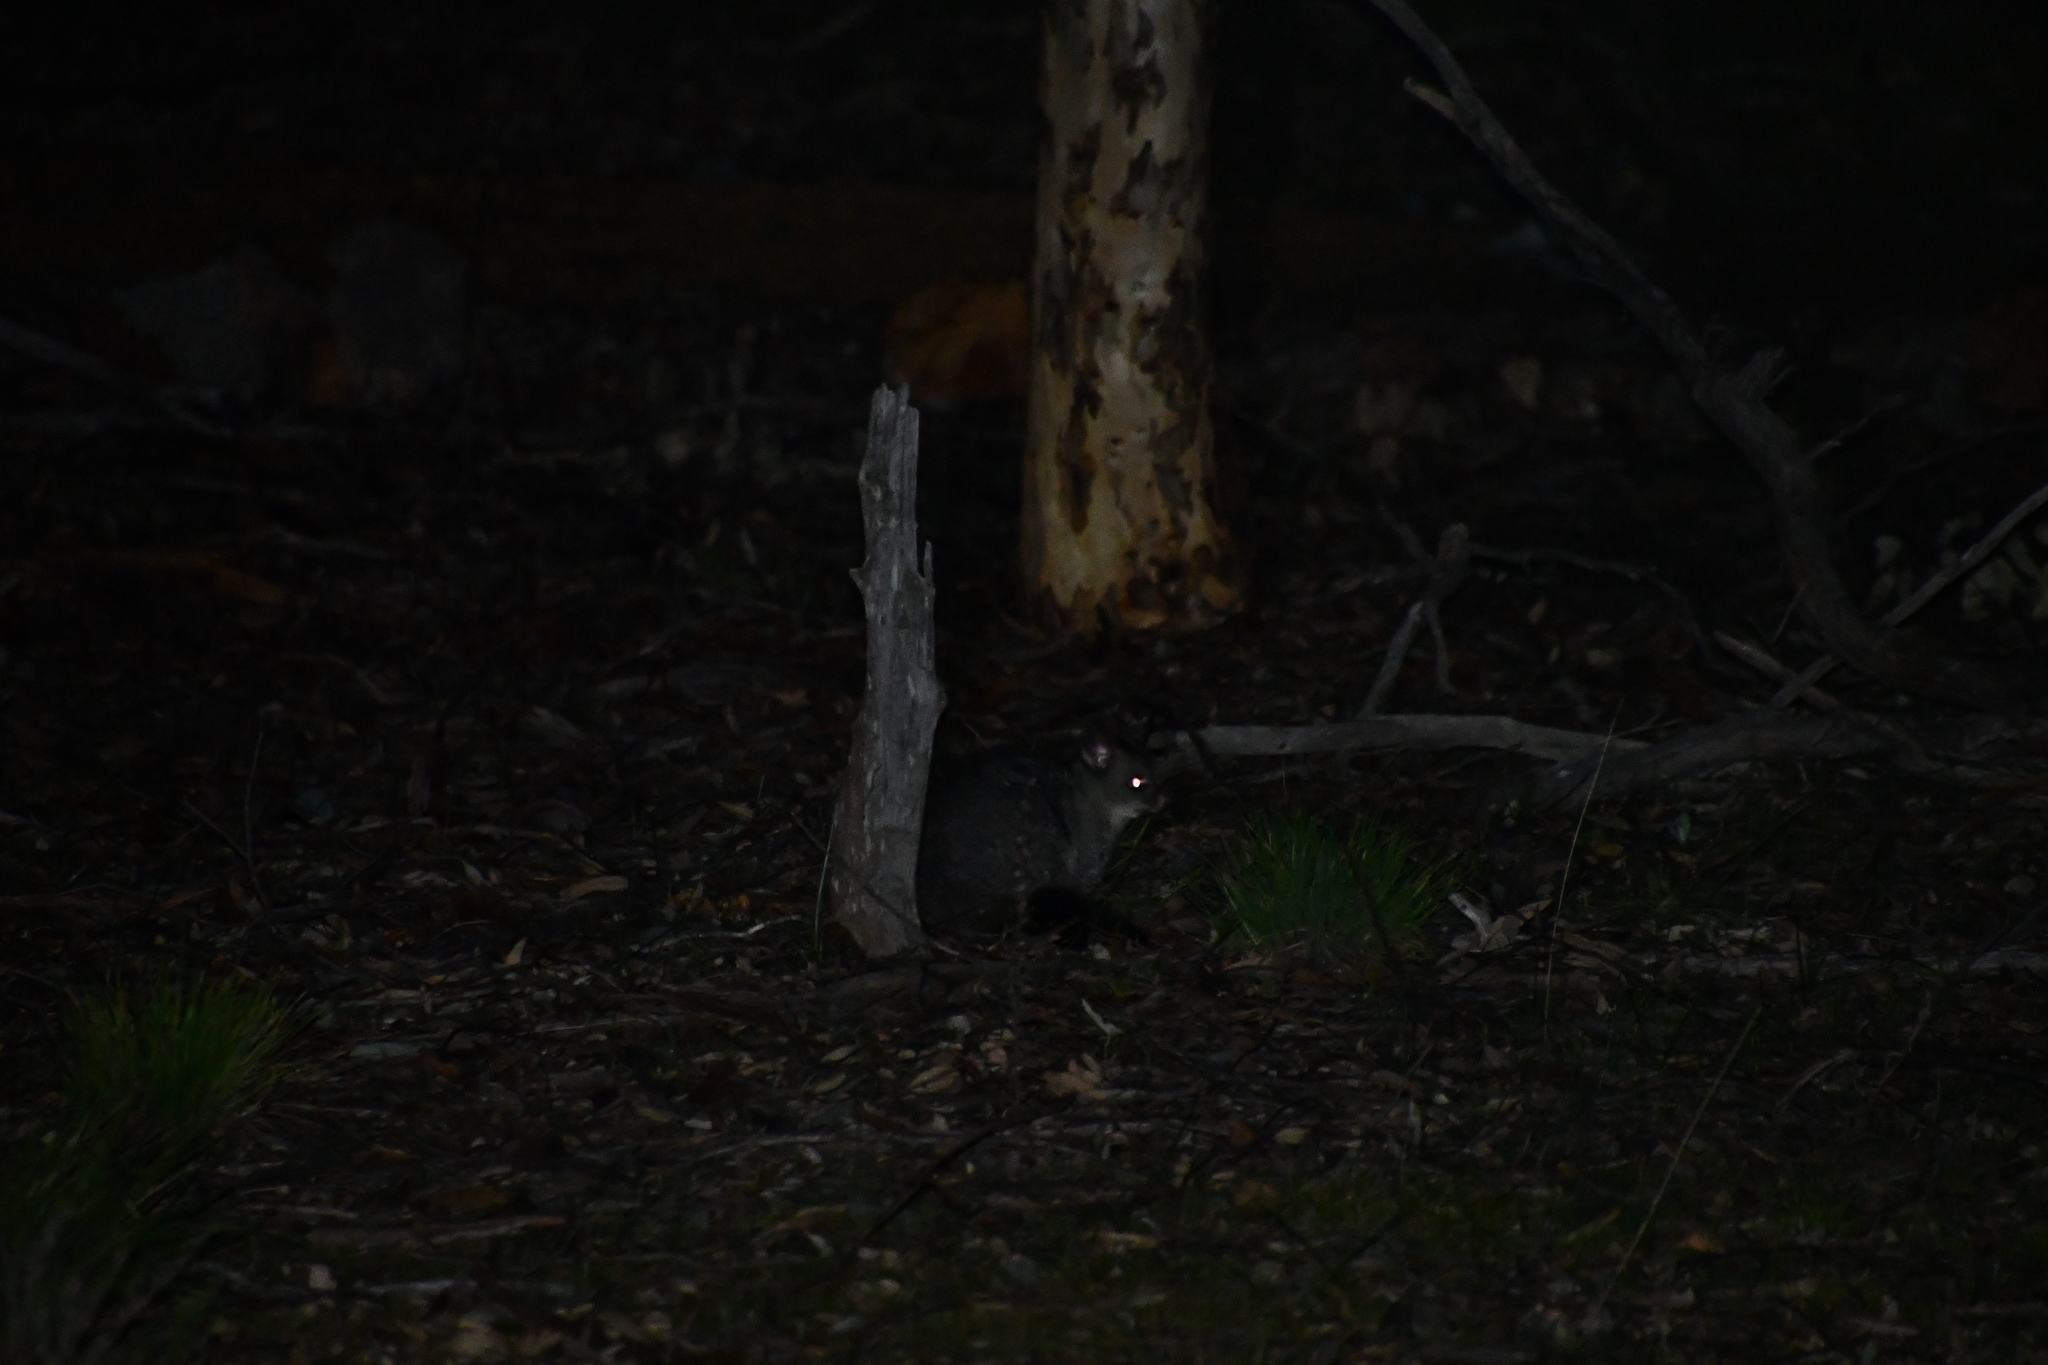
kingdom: Animalia
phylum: Chordata
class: Mammalia
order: Diprotodontia
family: Phalangeridae
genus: Trichosurus
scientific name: Trichosurus vulpecula
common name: Common brushtail
